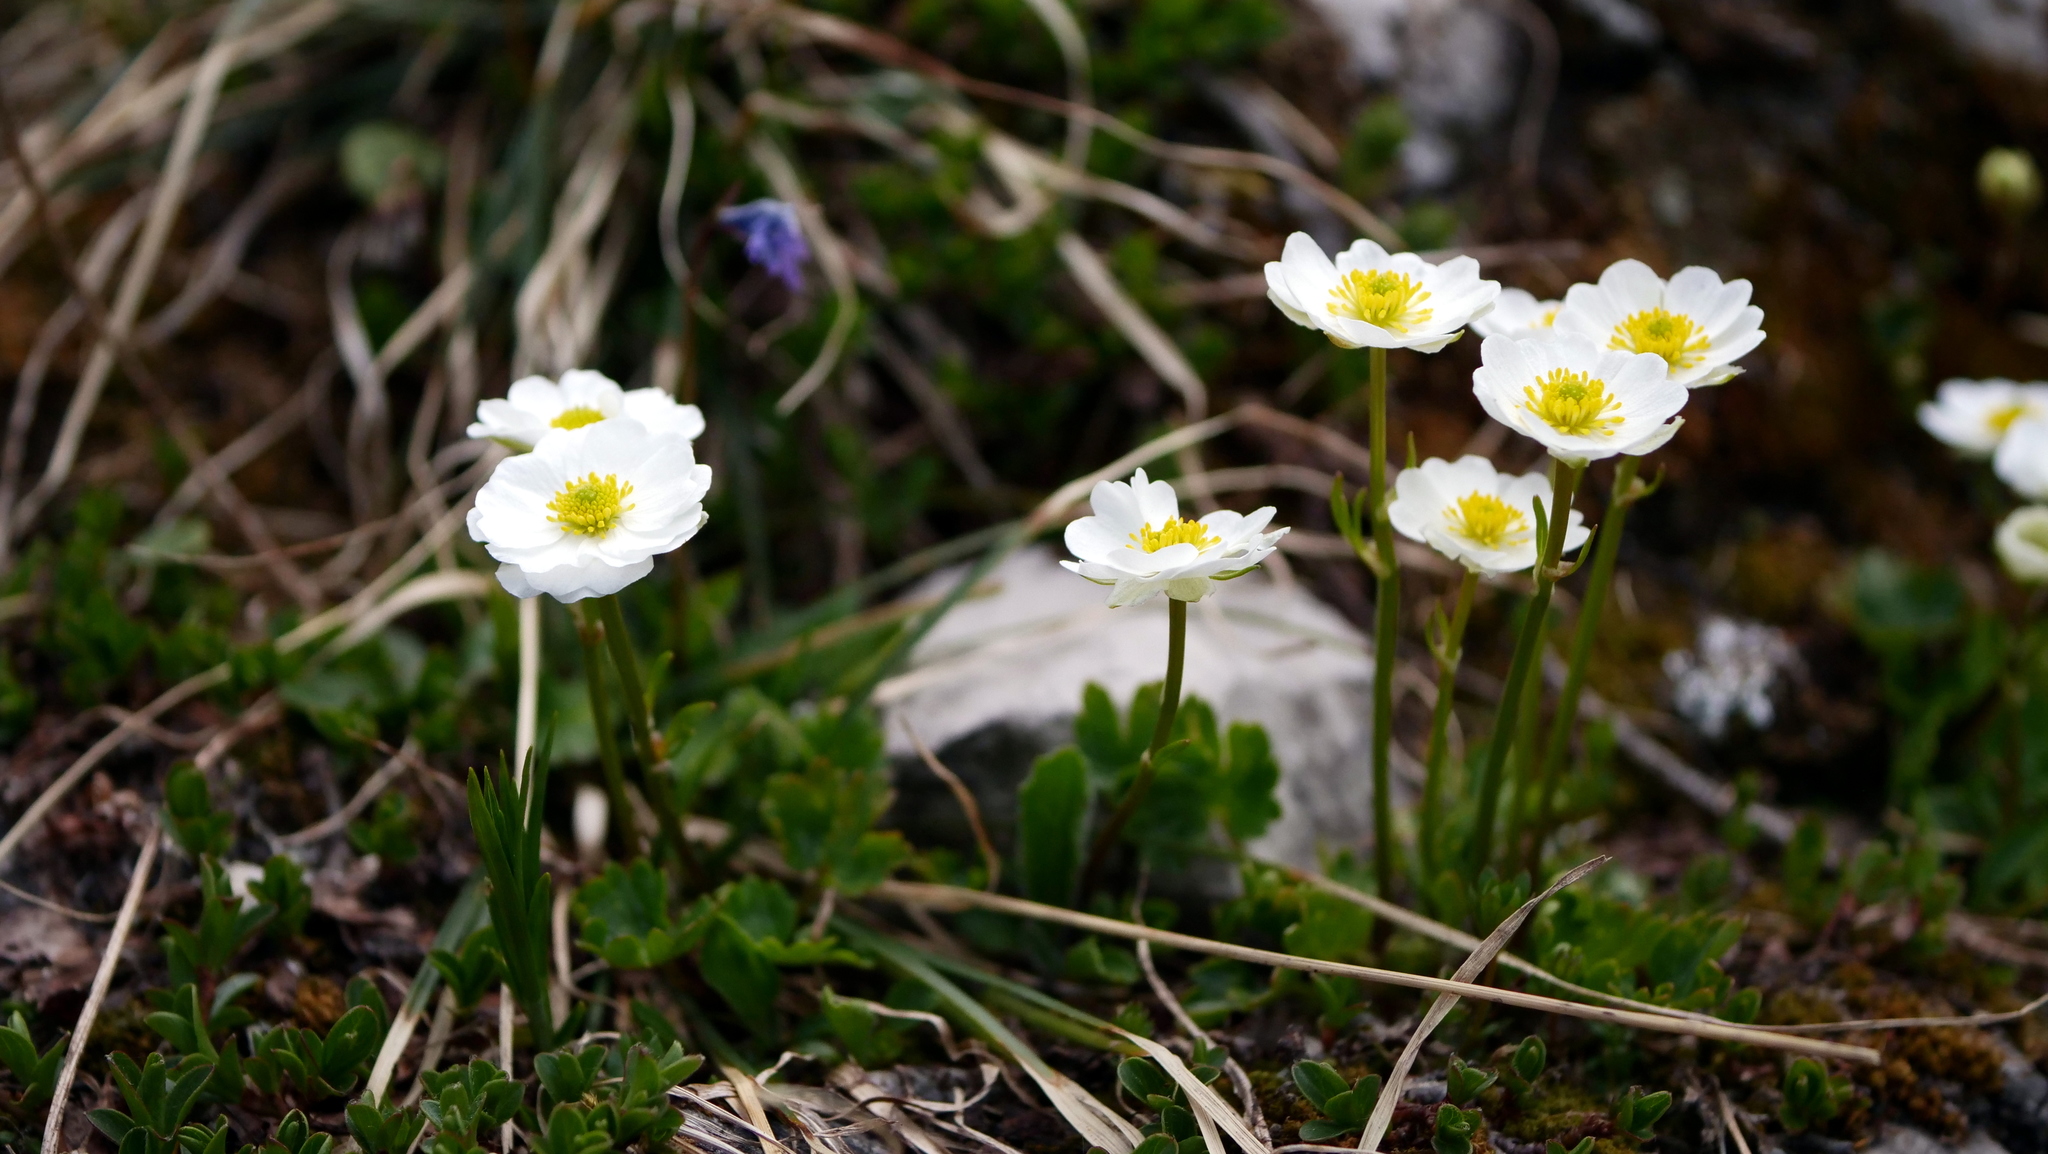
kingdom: Plantae
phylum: Tracheophyta
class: Magnoliopsida
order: Ranunculales
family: Ranunculaceae
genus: Ranunculus
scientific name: Ranunculus alpestris
